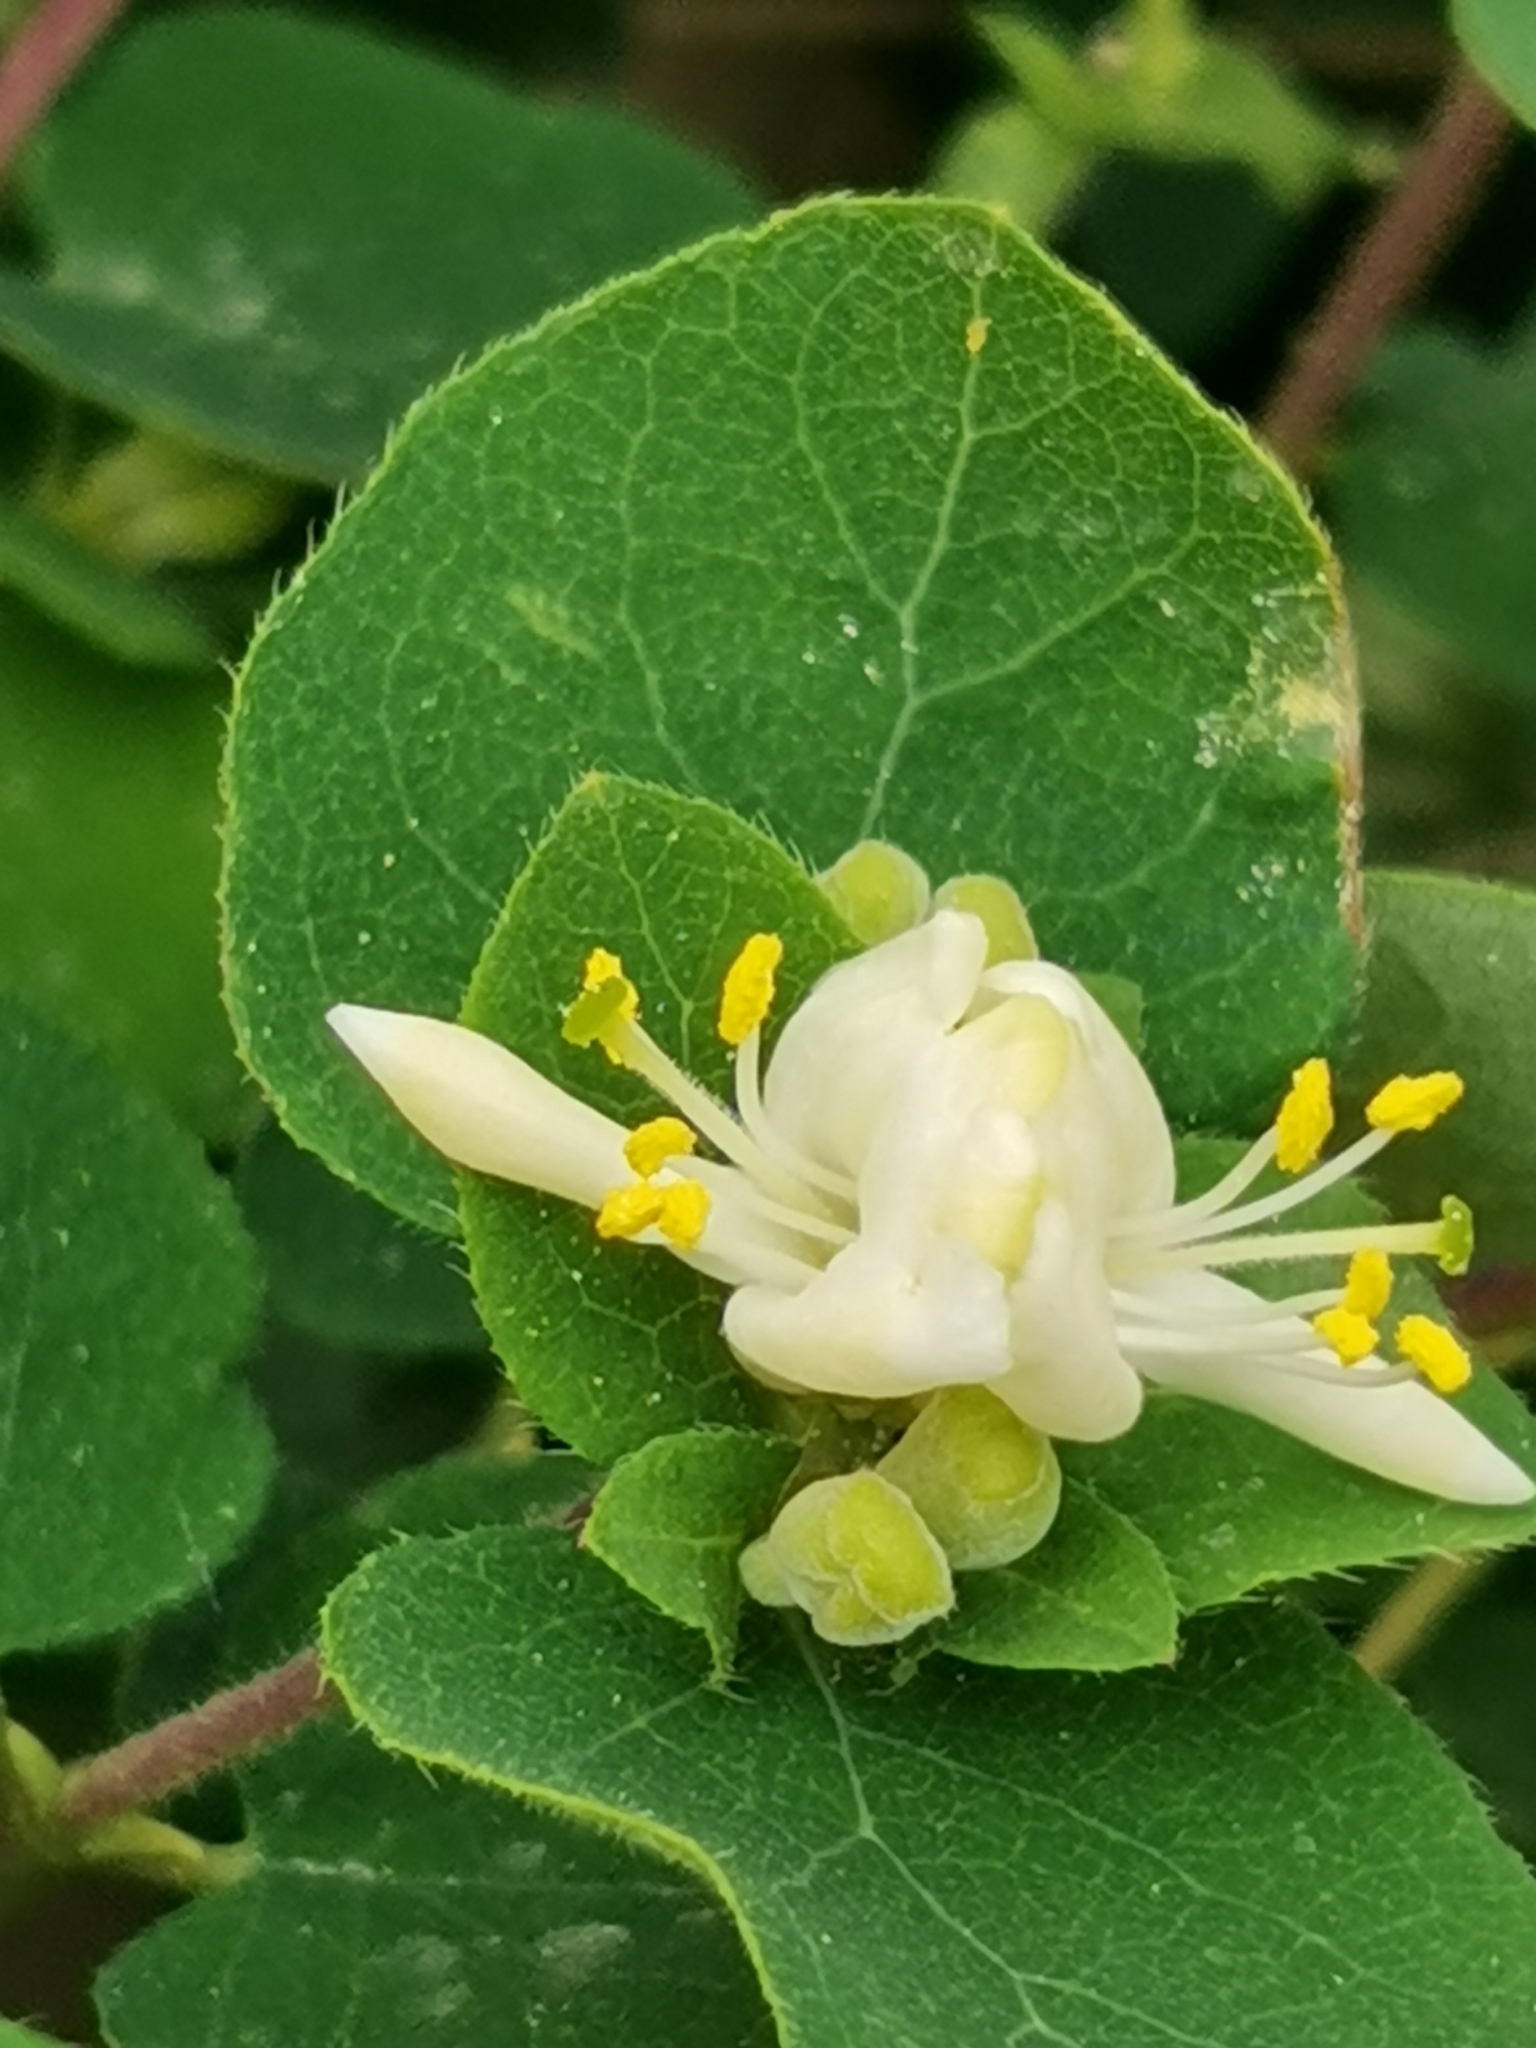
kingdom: Plantae
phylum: Tracheophyta
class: Magnoliopsida
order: Dipsacales
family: Caprifoliaceae
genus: Lonicera
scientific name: Lonicera iberica
